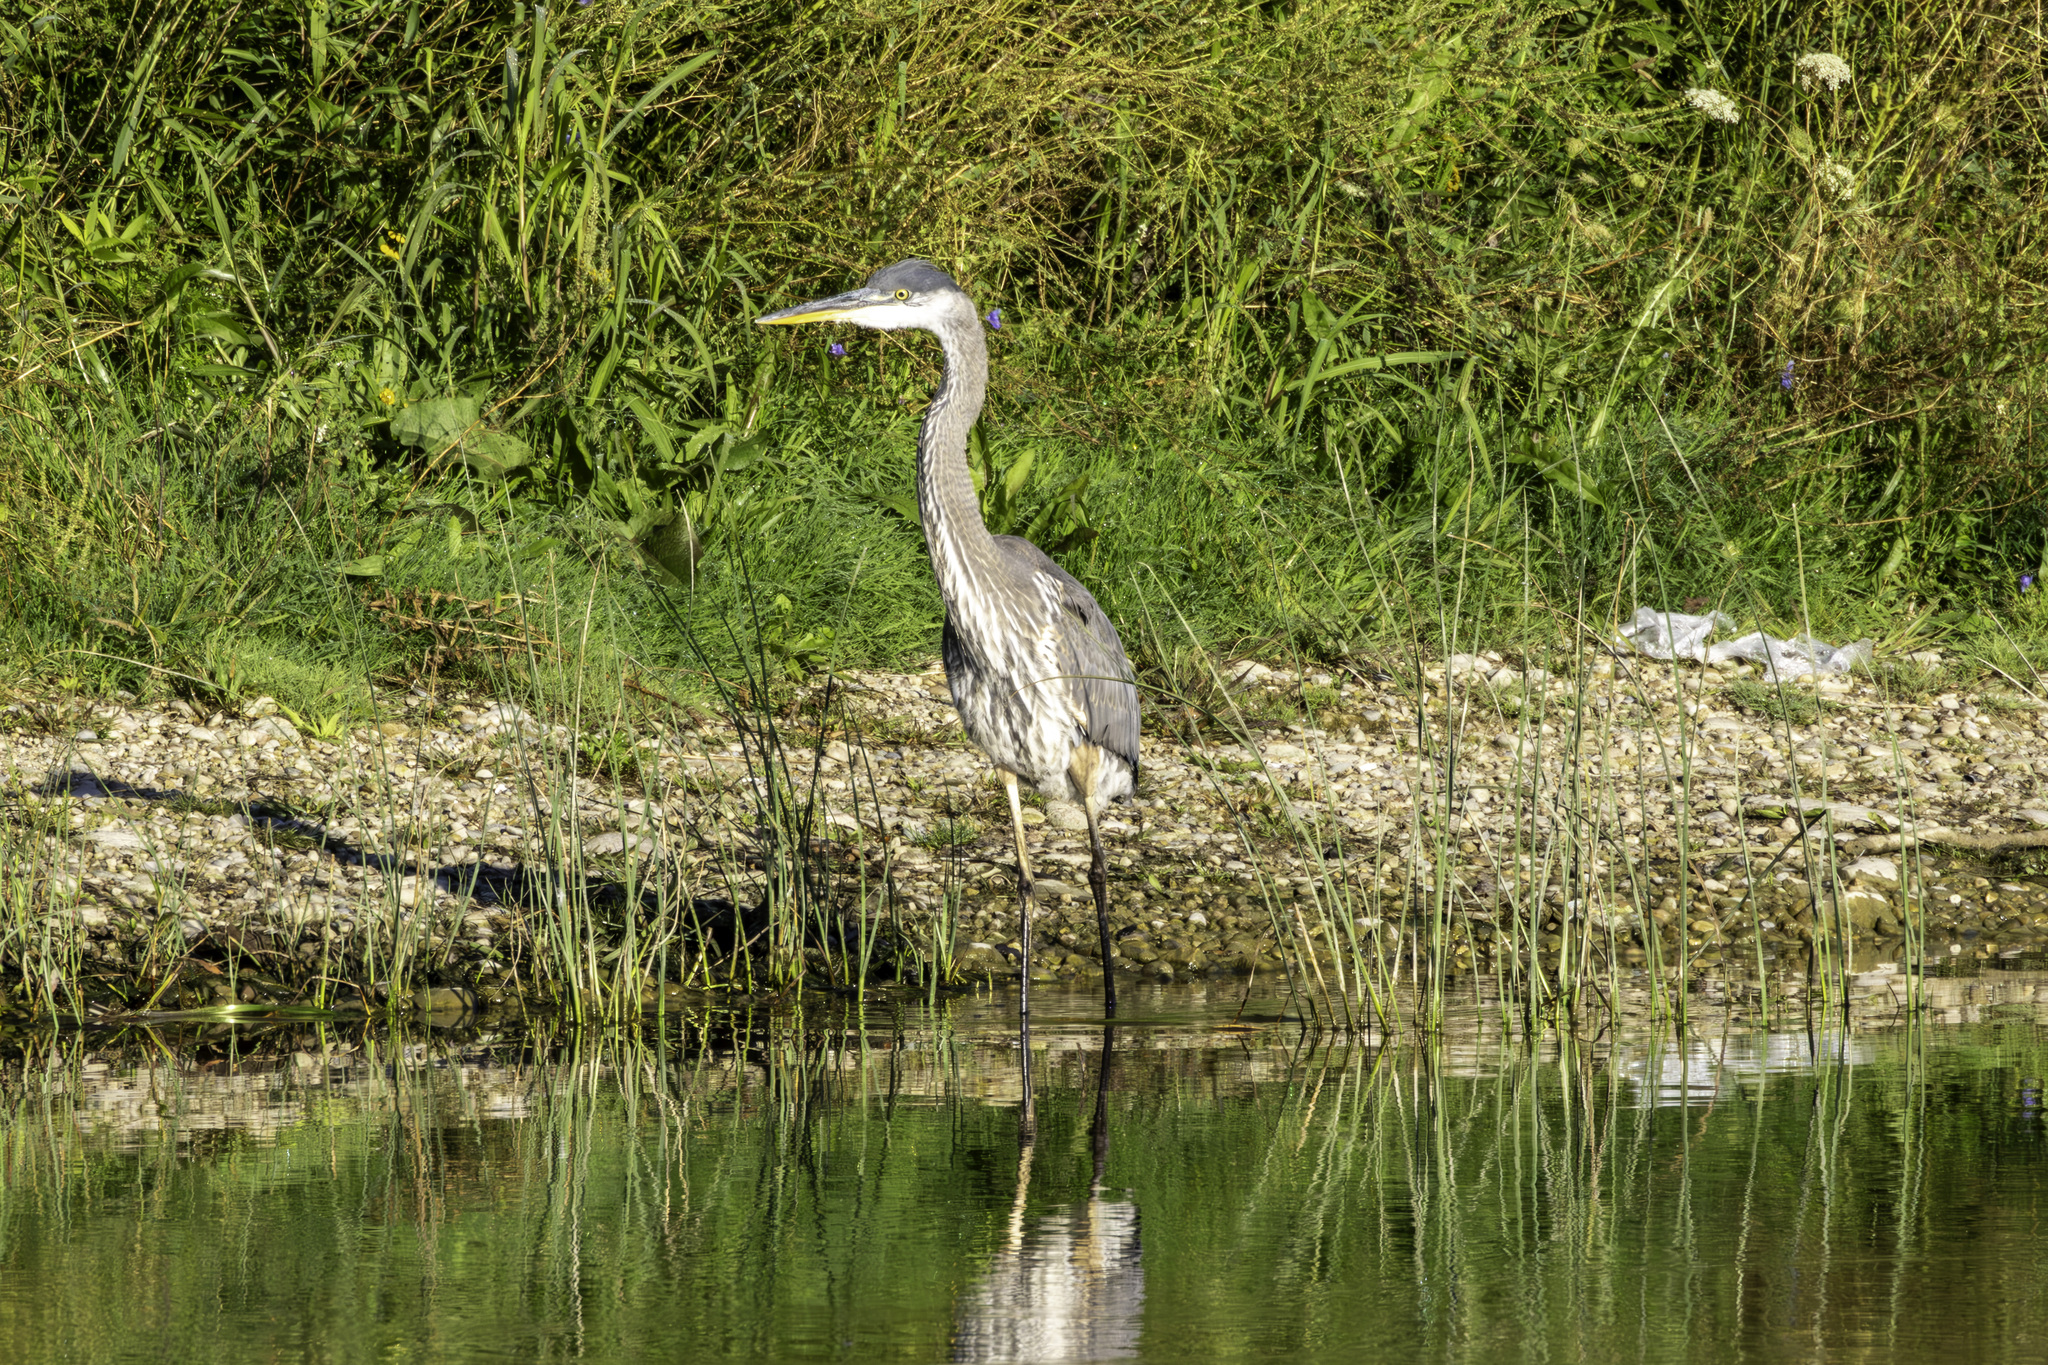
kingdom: Animalia
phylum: Chordata
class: Aves
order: Pelecaniformes
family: Ardeidae
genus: Ardea
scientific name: Ardea herodias
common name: Great blue heron
